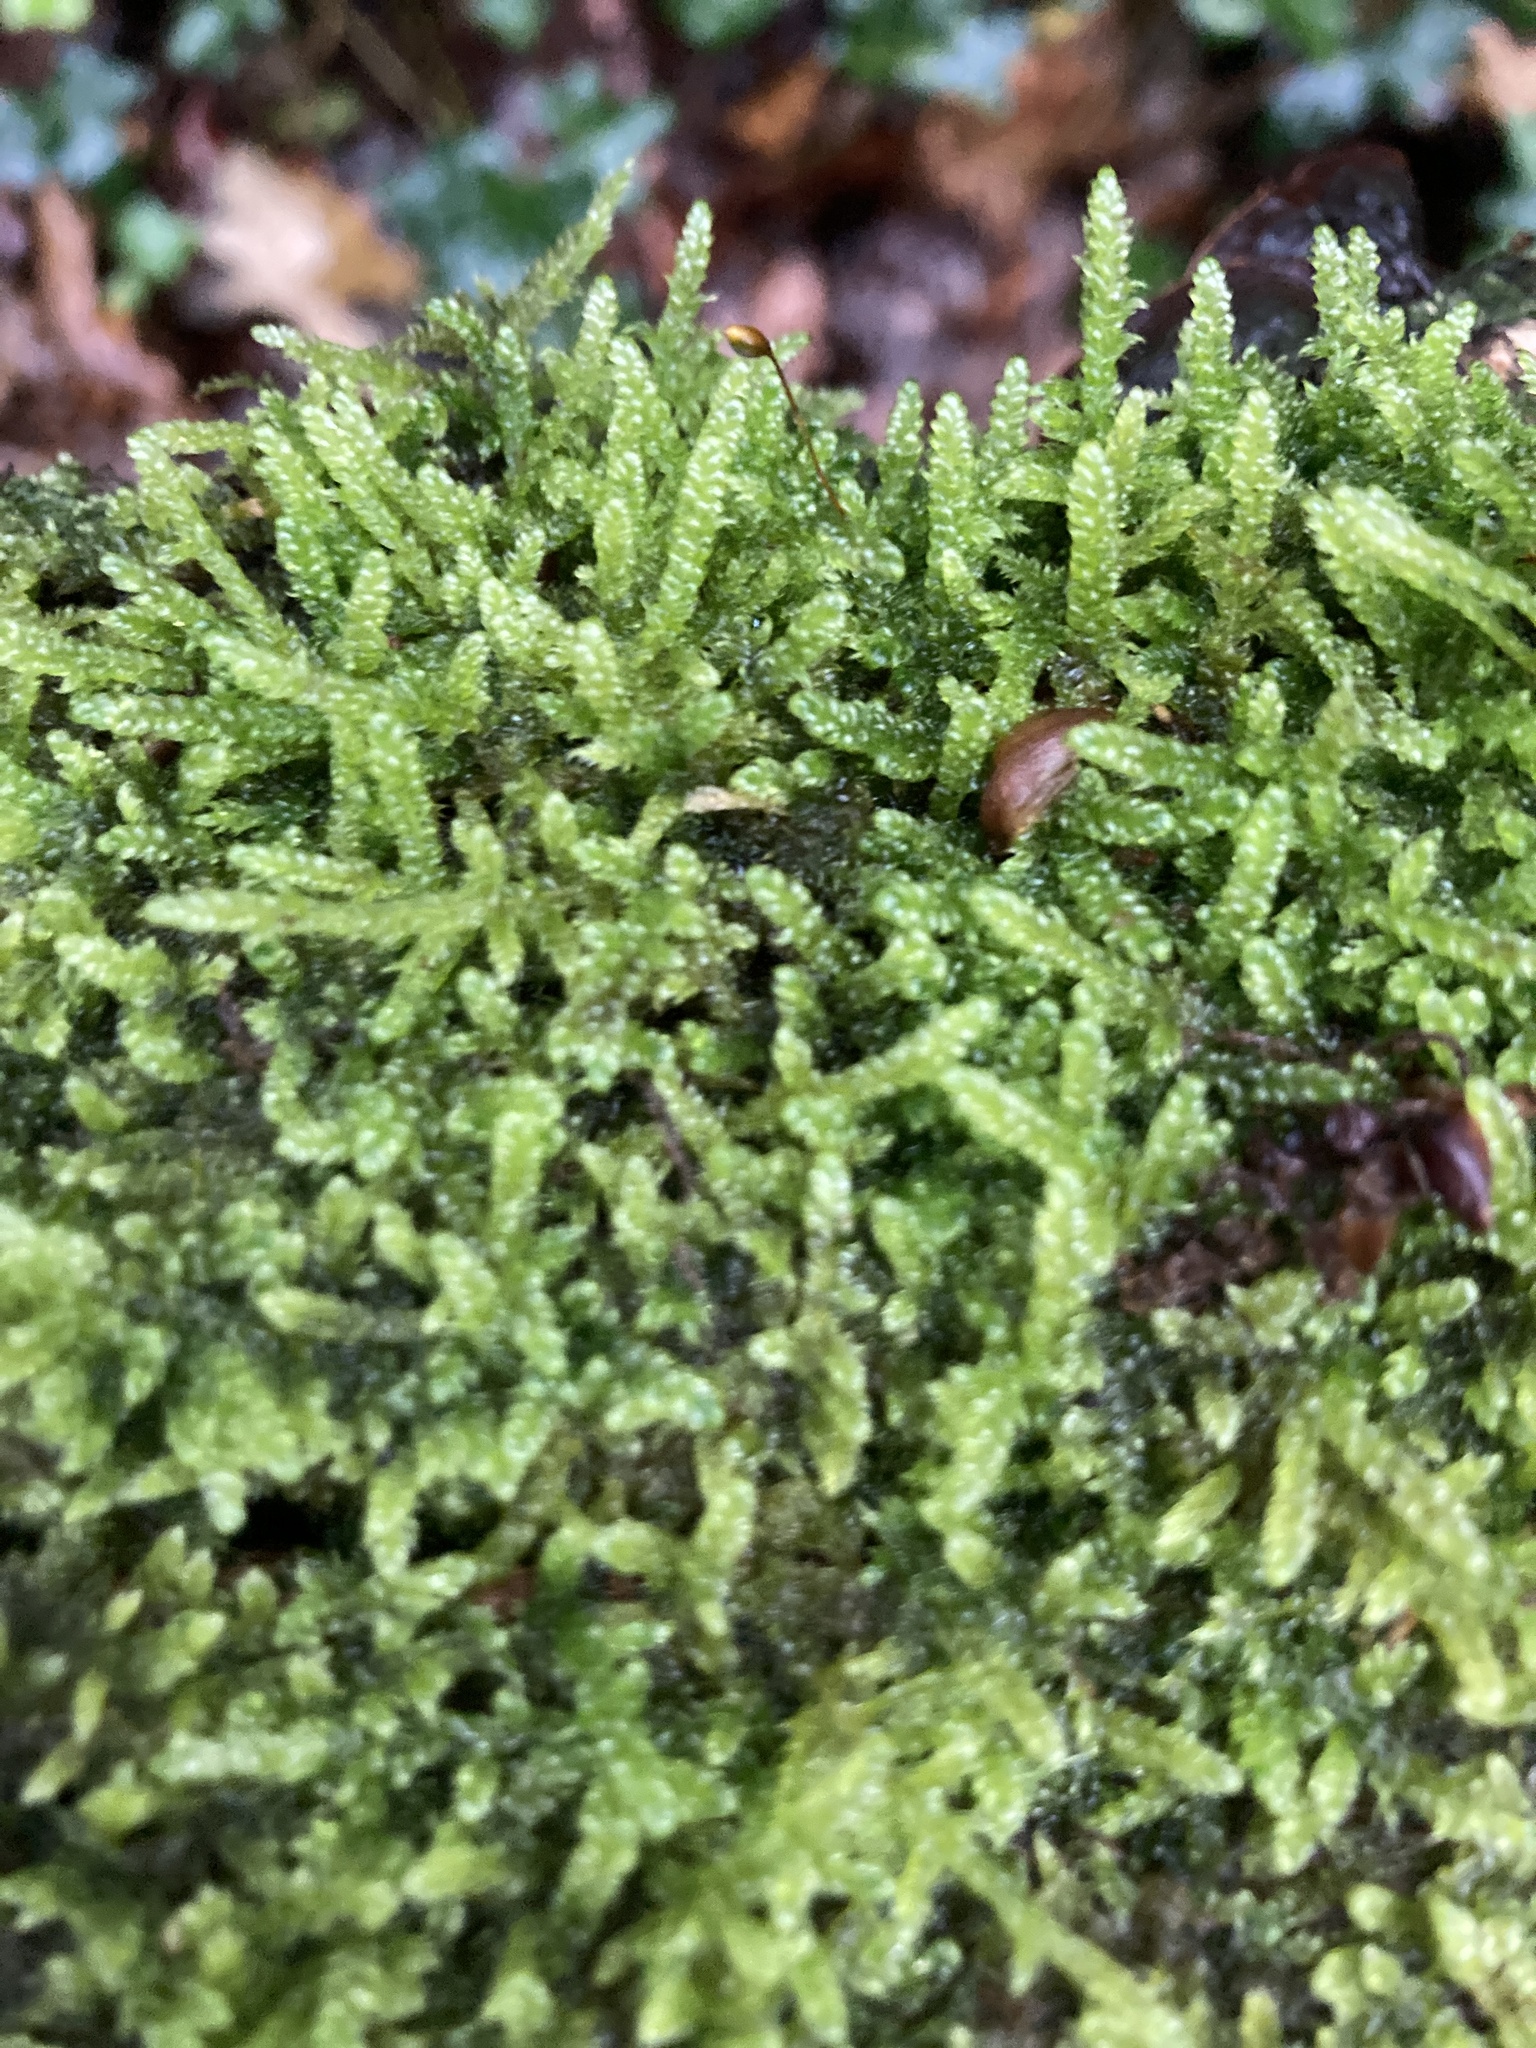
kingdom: Plantae
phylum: Bryophyta
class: Bryopsida
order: Hypnales
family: Hypnaceae
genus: Hypnum
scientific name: Hypnum cupressiforme
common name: Cypress-leaved plait-moss
